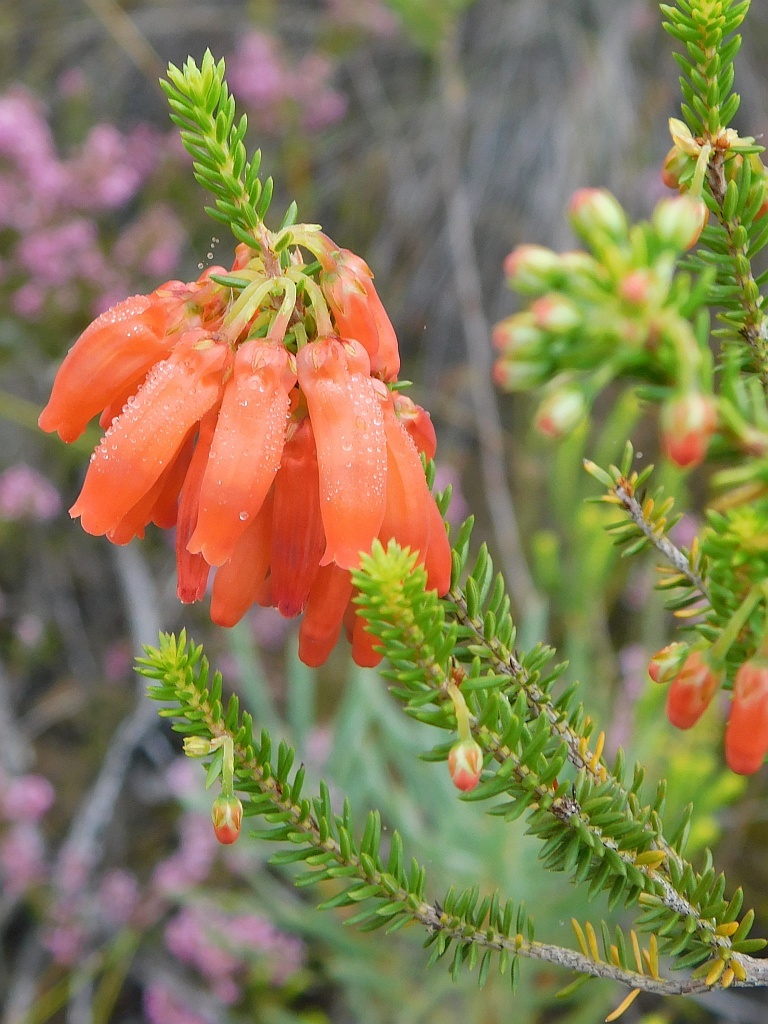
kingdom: Plantae
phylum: Tracheophyta
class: Magnoliopsida
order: Ericales
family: Ericaceae
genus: Erica
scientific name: Erica mammosa
